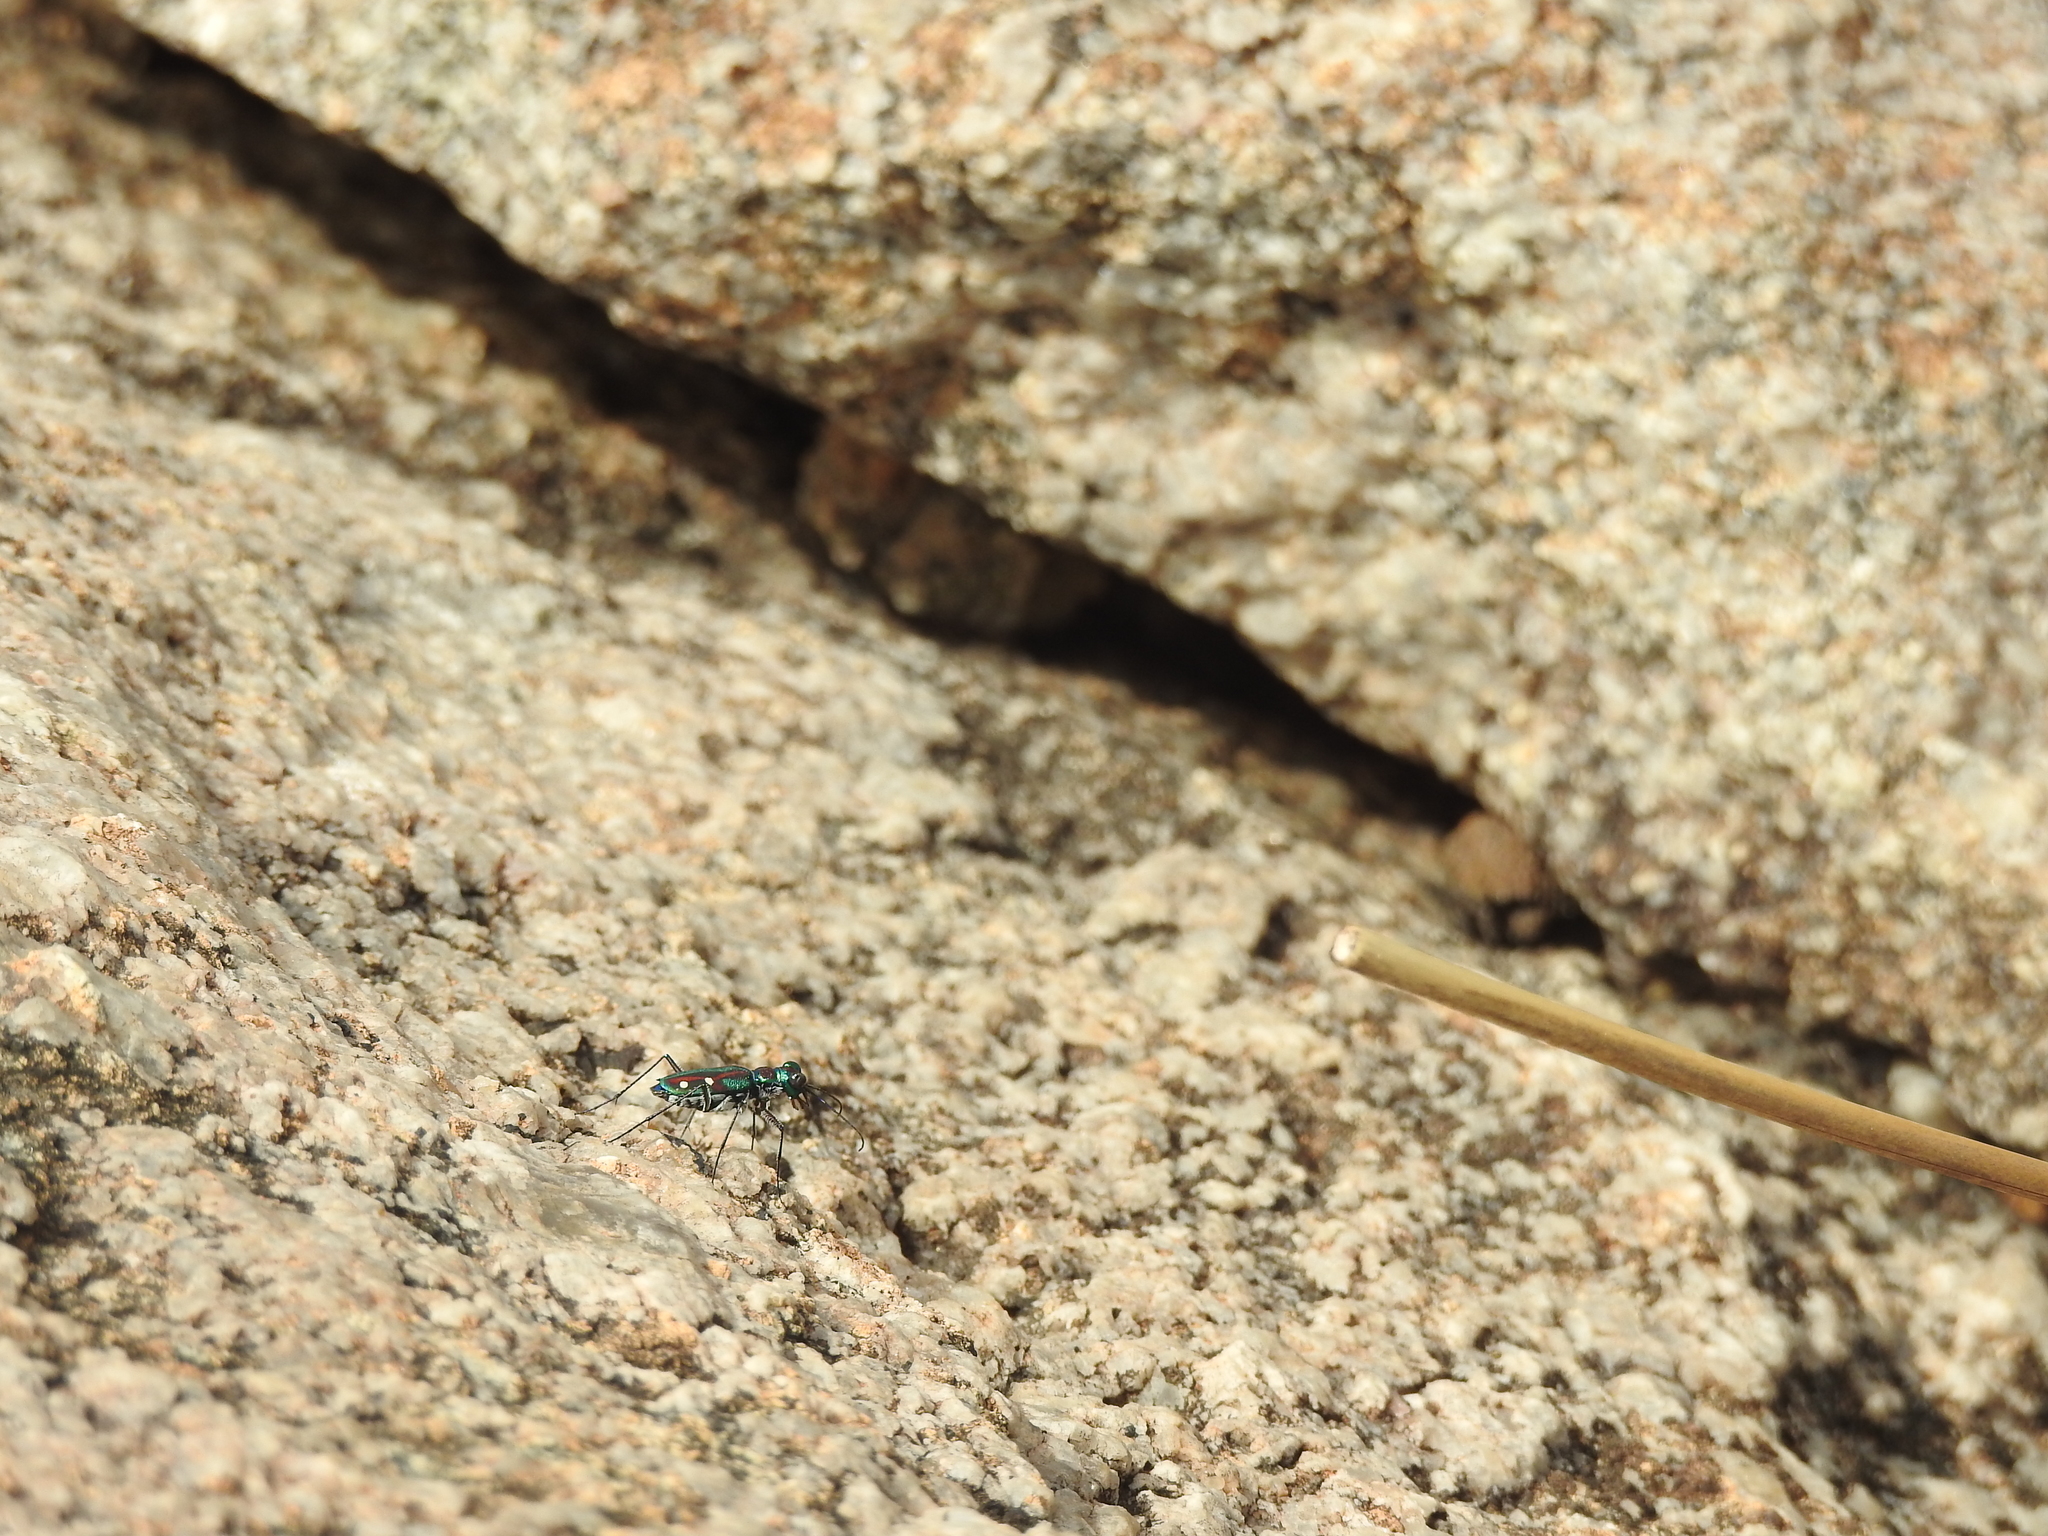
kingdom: Animalia
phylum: Arthropoda
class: Insecta
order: Coleoptera
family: Carabidae
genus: Jansenia
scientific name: Jansenia rugosiceps
